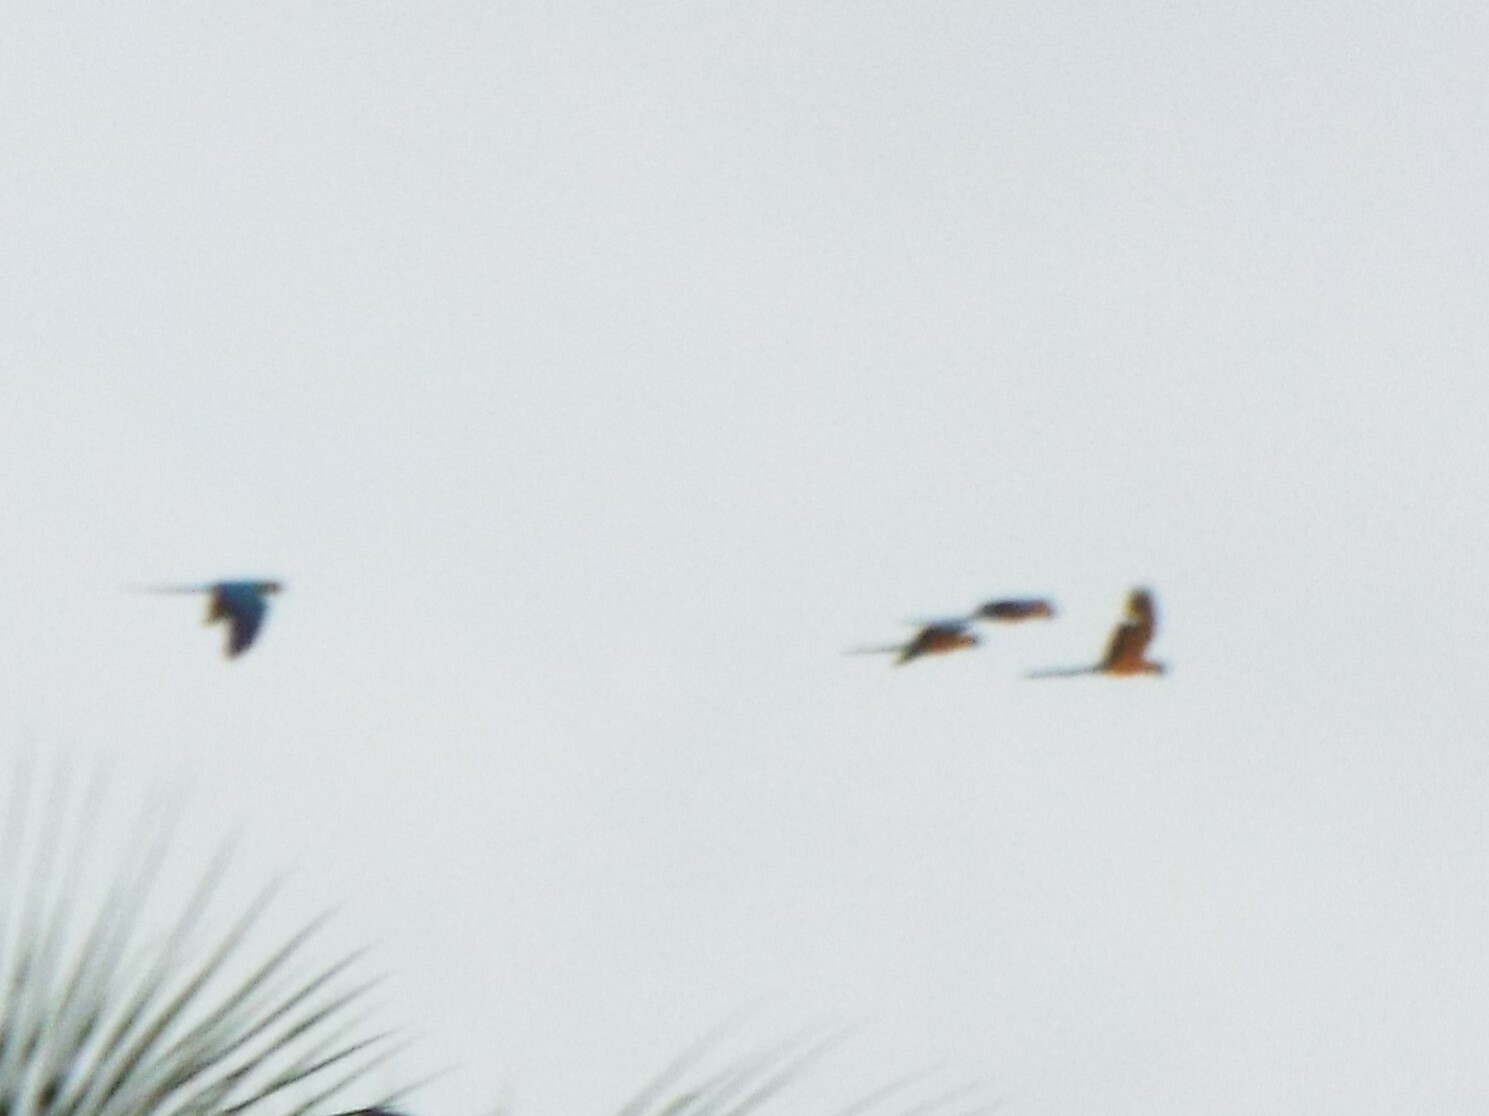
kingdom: Animalia
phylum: Chordata
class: Aves
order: Psittaciformes
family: Psittacidae
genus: Ara
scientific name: Ara ararauna
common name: Blue-and-yellow macaw
